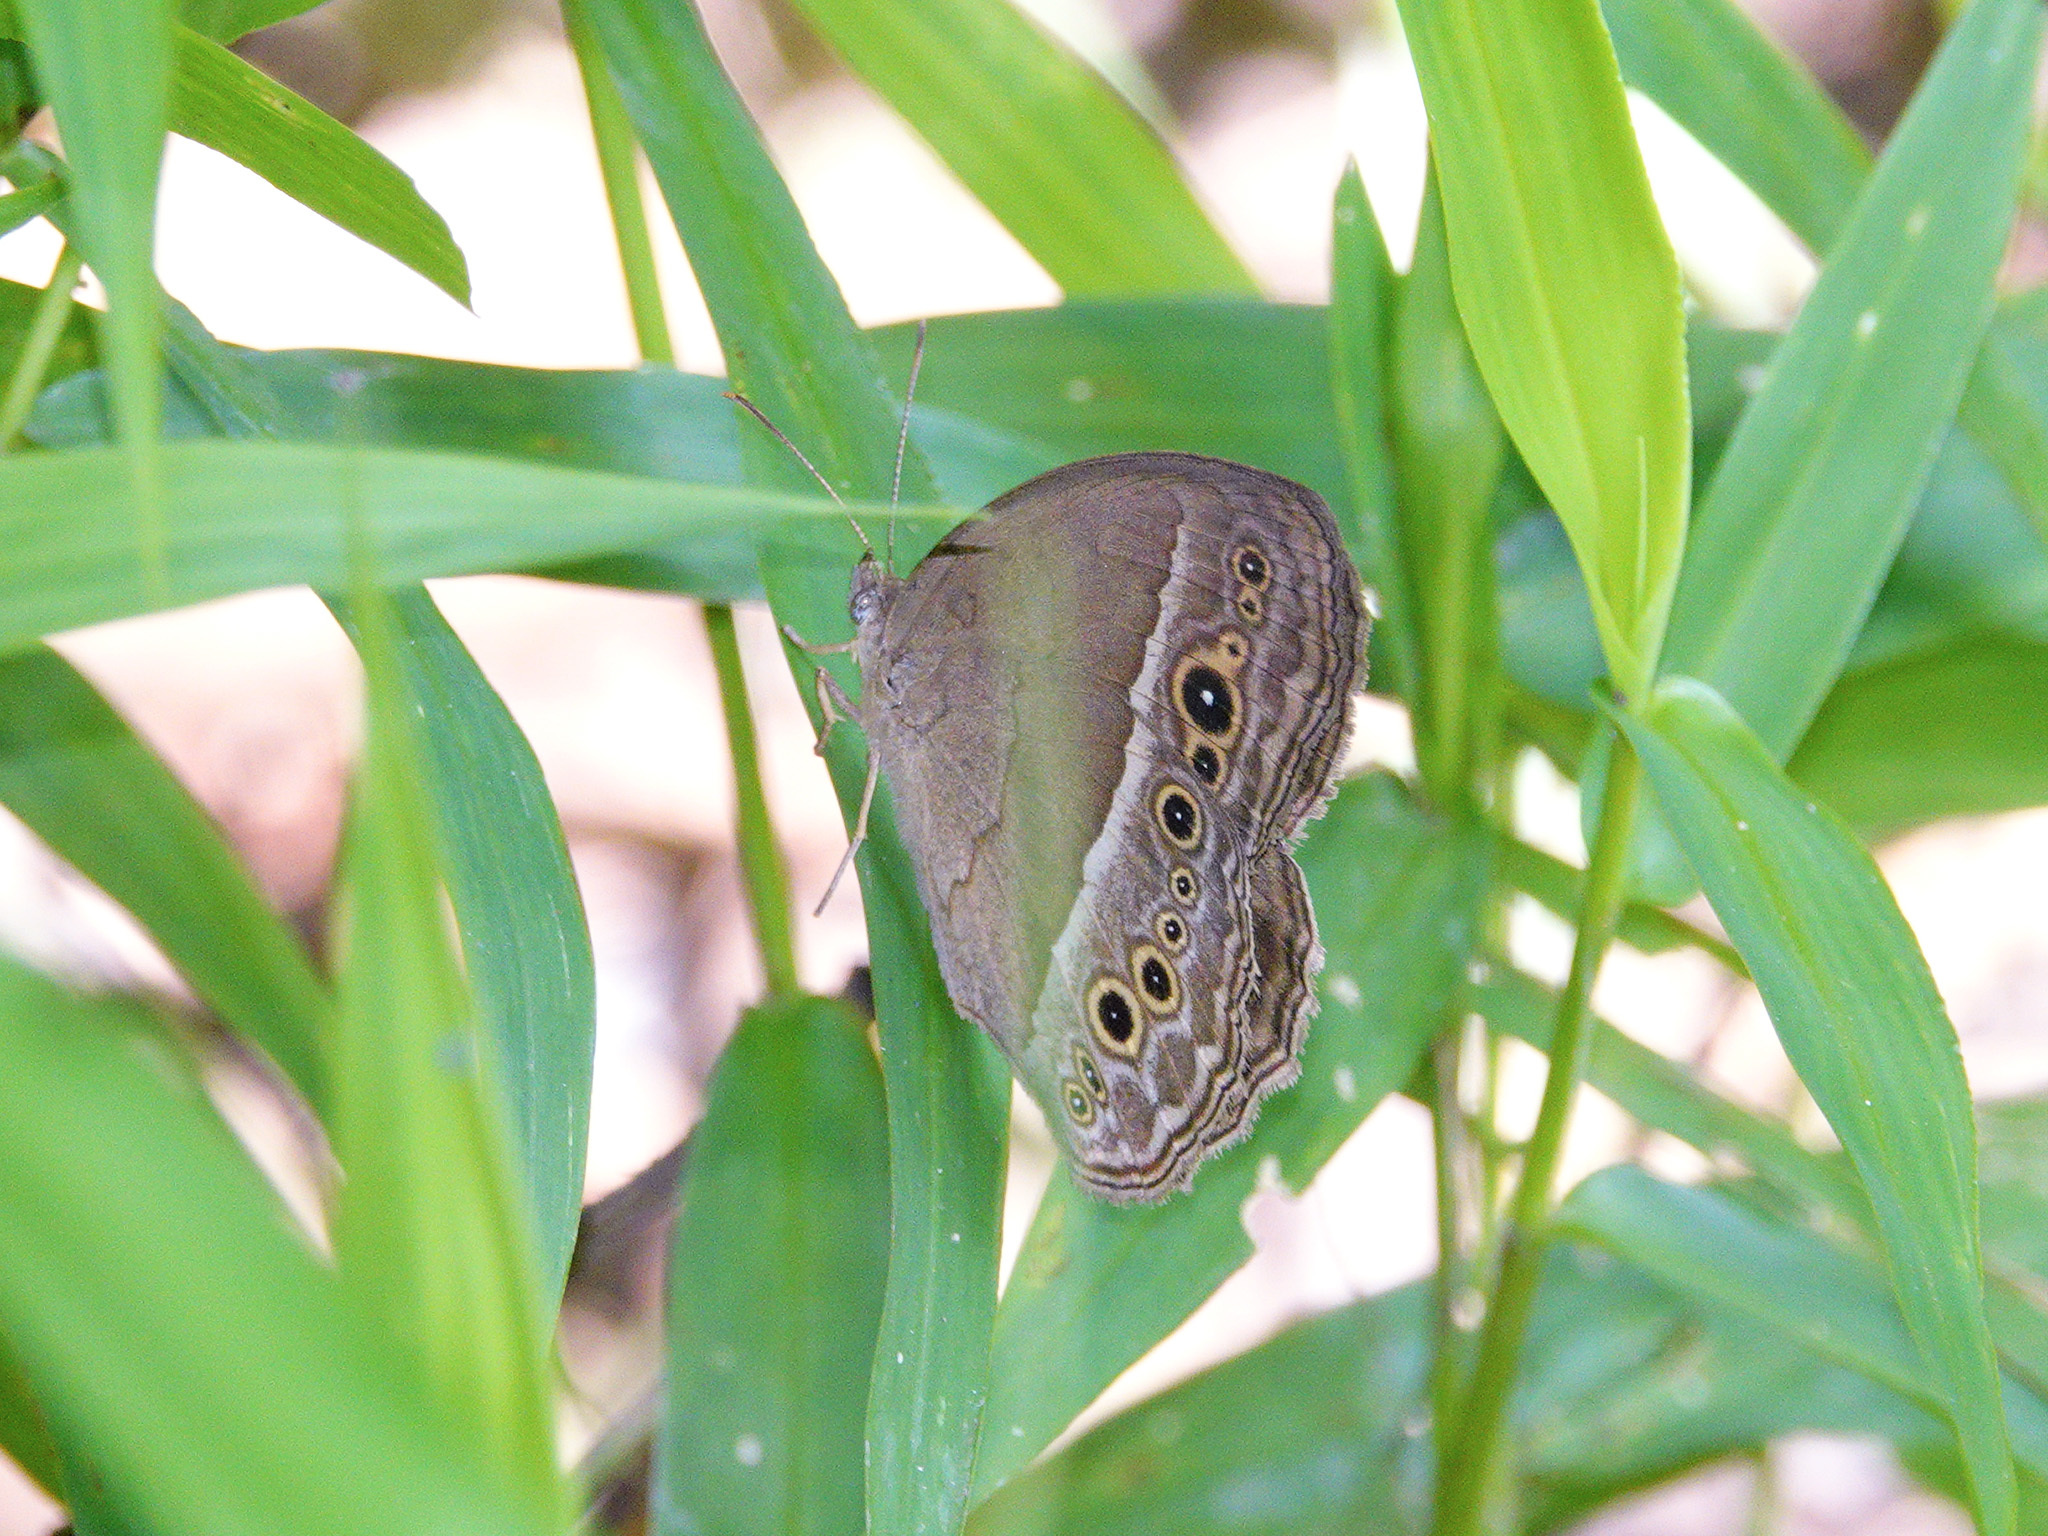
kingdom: Animalia
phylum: Arthropoda
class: Insecta
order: Lepidoptera
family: Nymphalidae
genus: Mycalesis
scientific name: Mycalesis perseoides
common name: Burmese bushbrown
